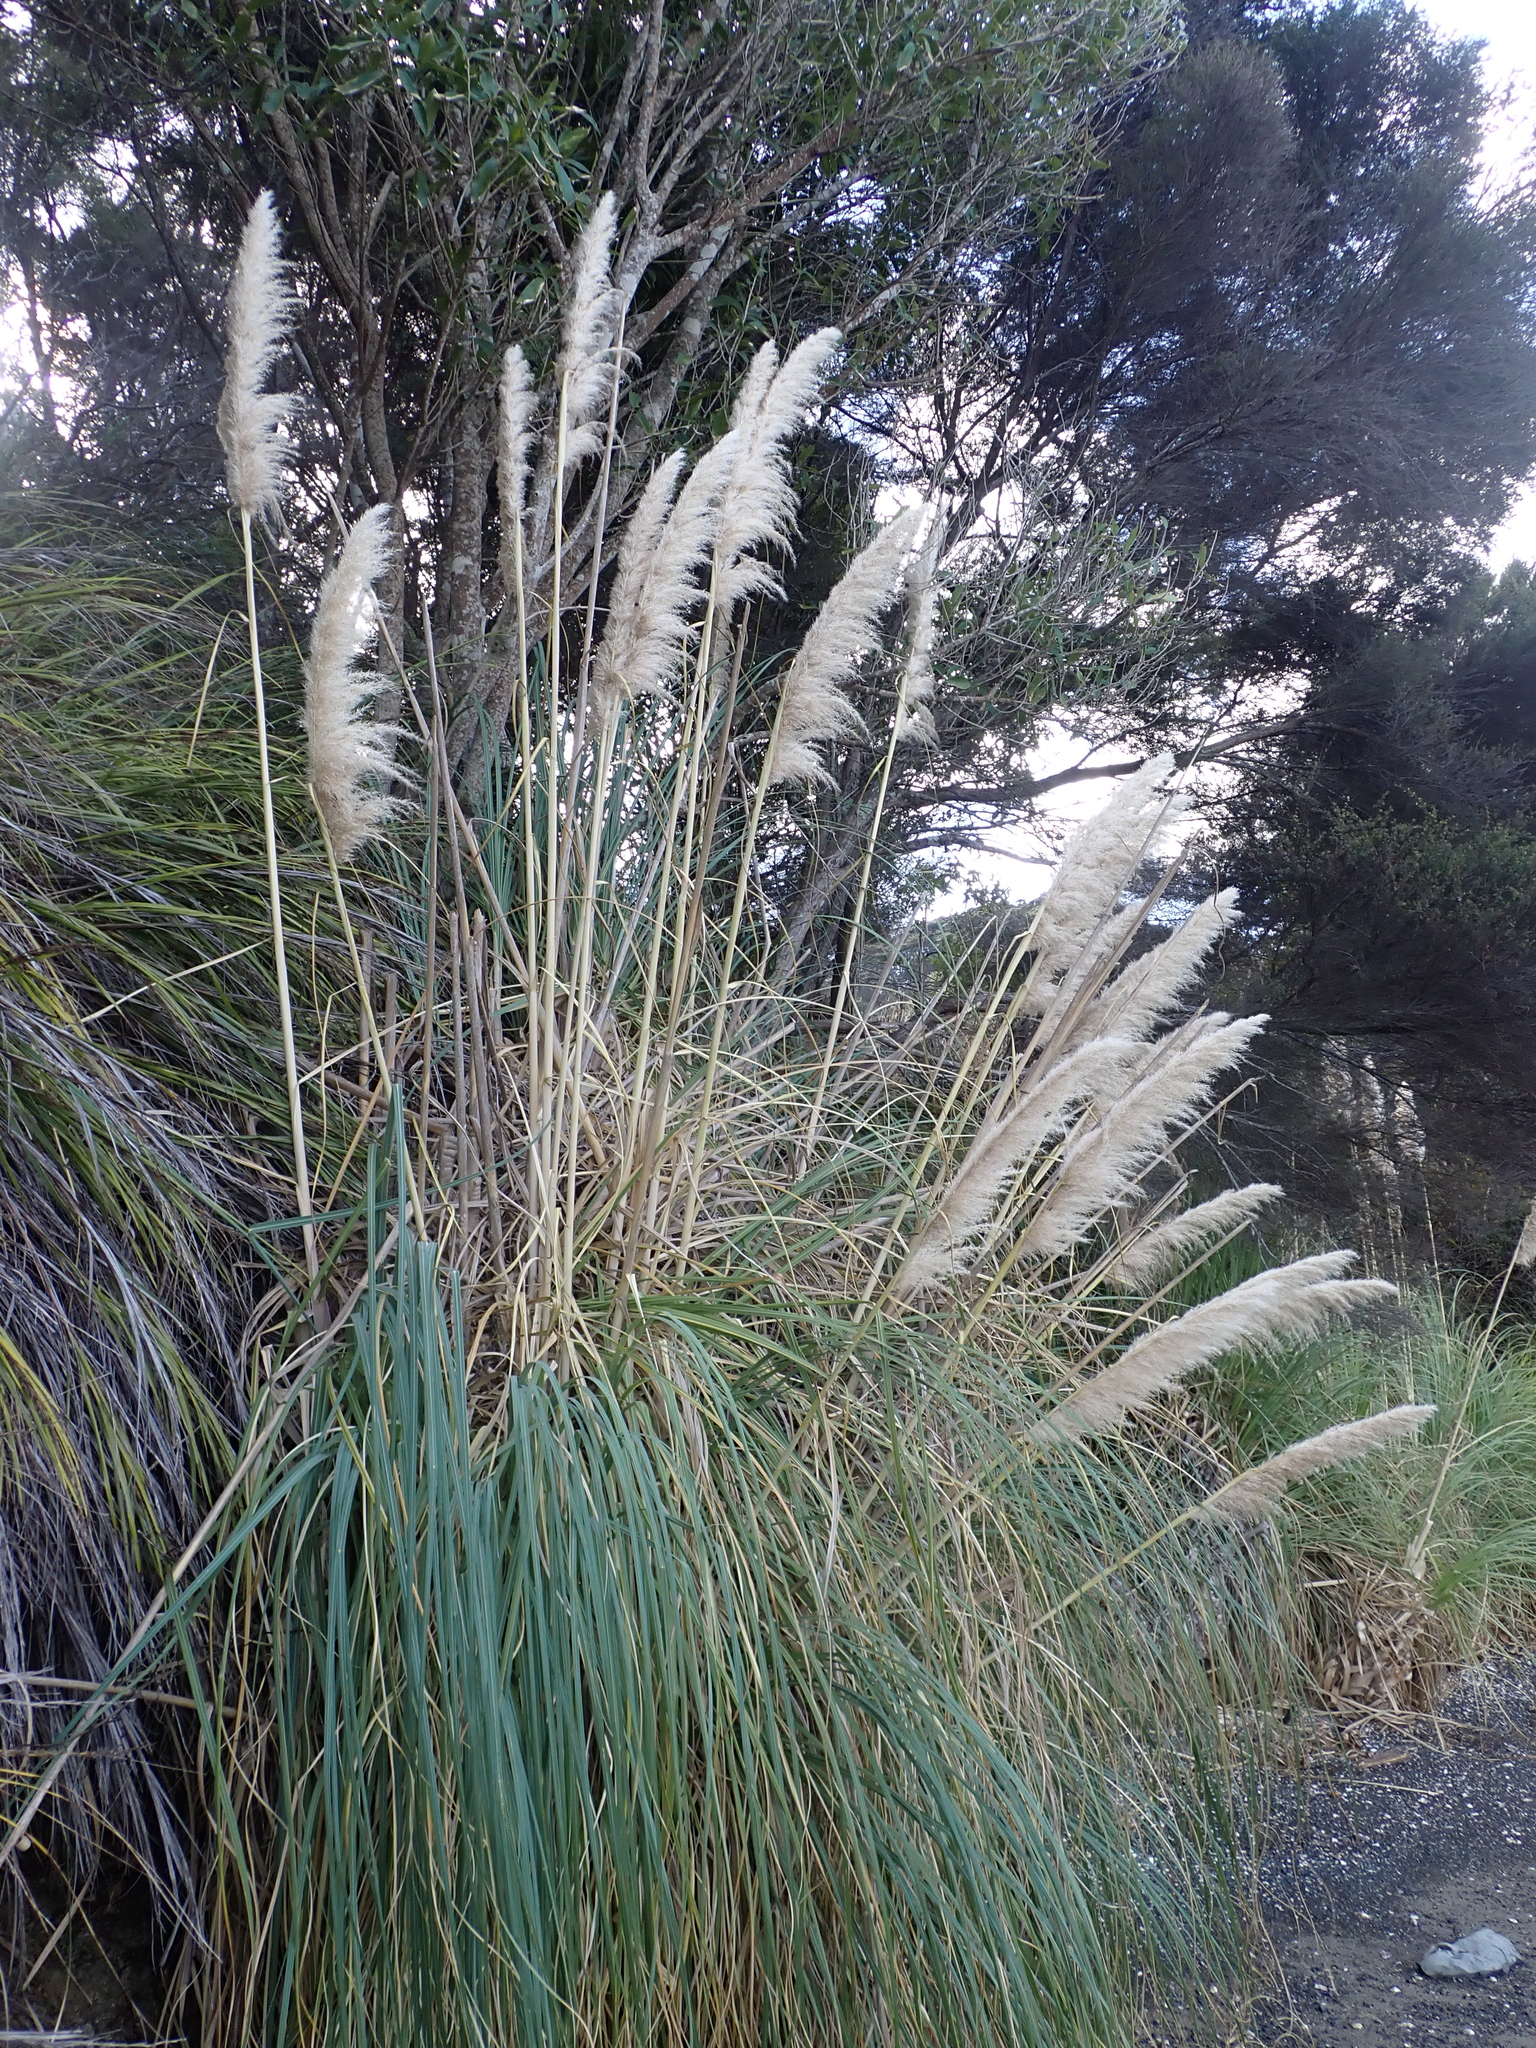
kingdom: Plantae
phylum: Tracheophyta
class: Liliopsida
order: Poales
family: Poaceae
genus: Cortaderia
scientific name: Cortaderia selloana
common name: Uruguayan pampas grass
